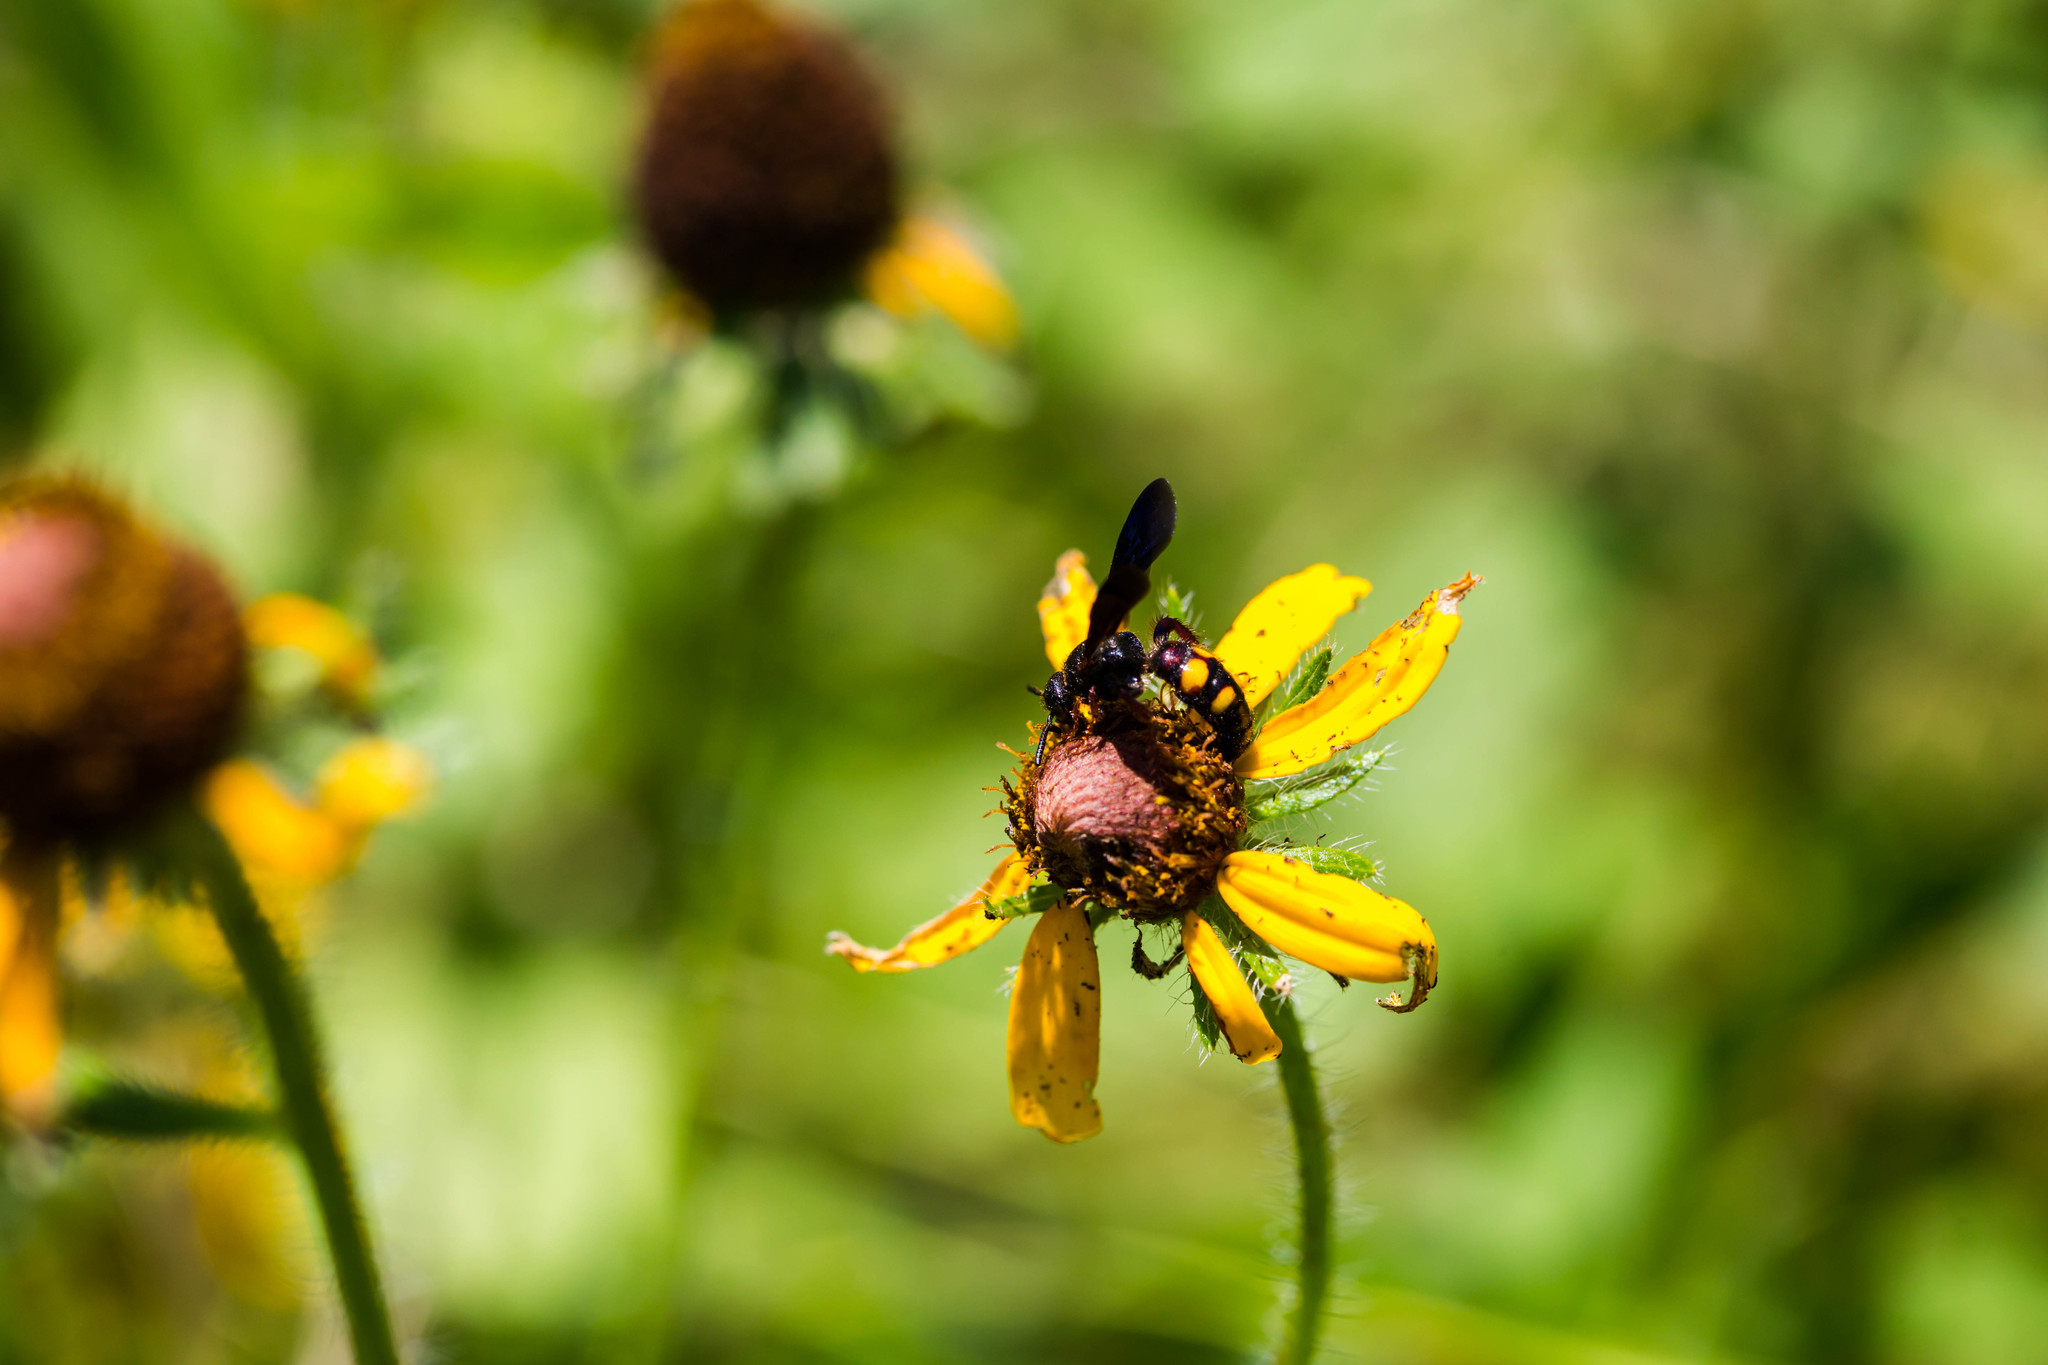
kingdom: Animalia
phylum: Arthropoda
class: Insecta
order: Hymenoptera
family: Scoliidae
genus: Scolia
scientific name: Scolia nobilitata
